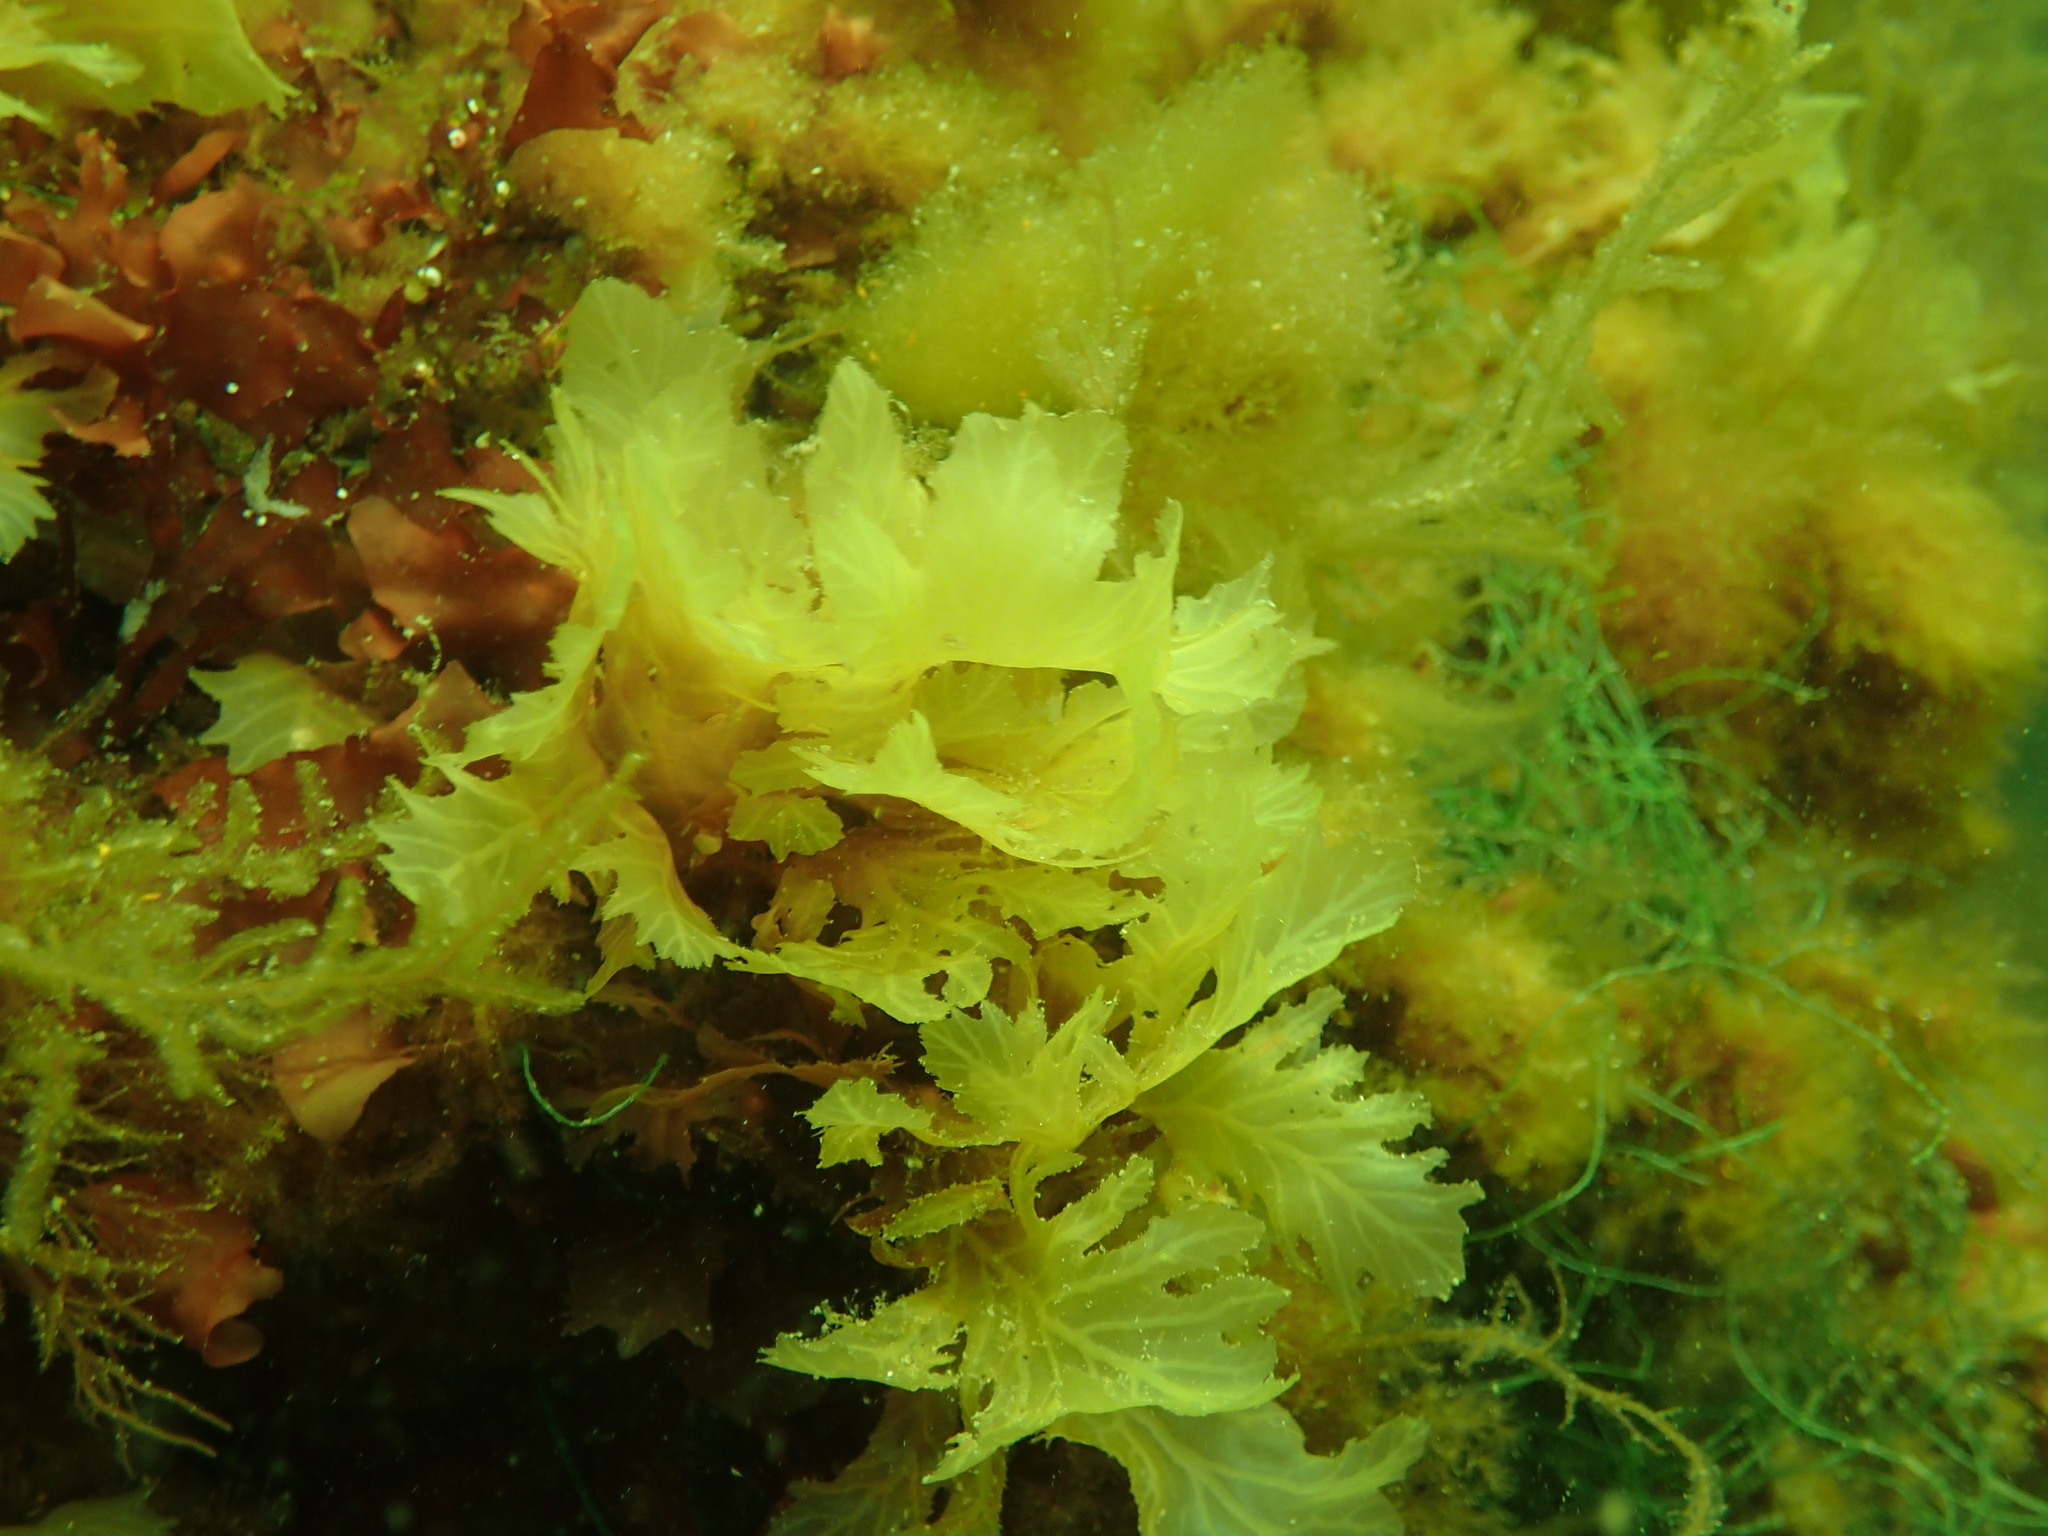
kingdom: Plantae
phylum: Rhodophyta
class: Florideophyceae
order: Ceramiales
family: Delesseriaceae
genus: Phycodrys
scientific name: Phycodrys rubens
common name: Sea oak
